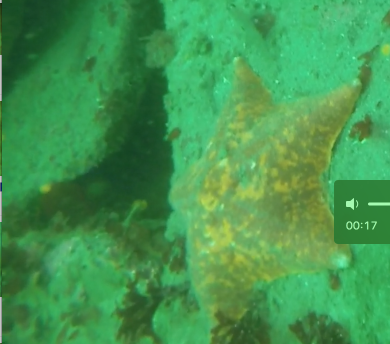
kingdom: Animalia
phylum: Echinodermata
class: Asteroidea
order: Valvatida
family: Asterinidae
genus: Patiria
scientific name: Patiria miniata
